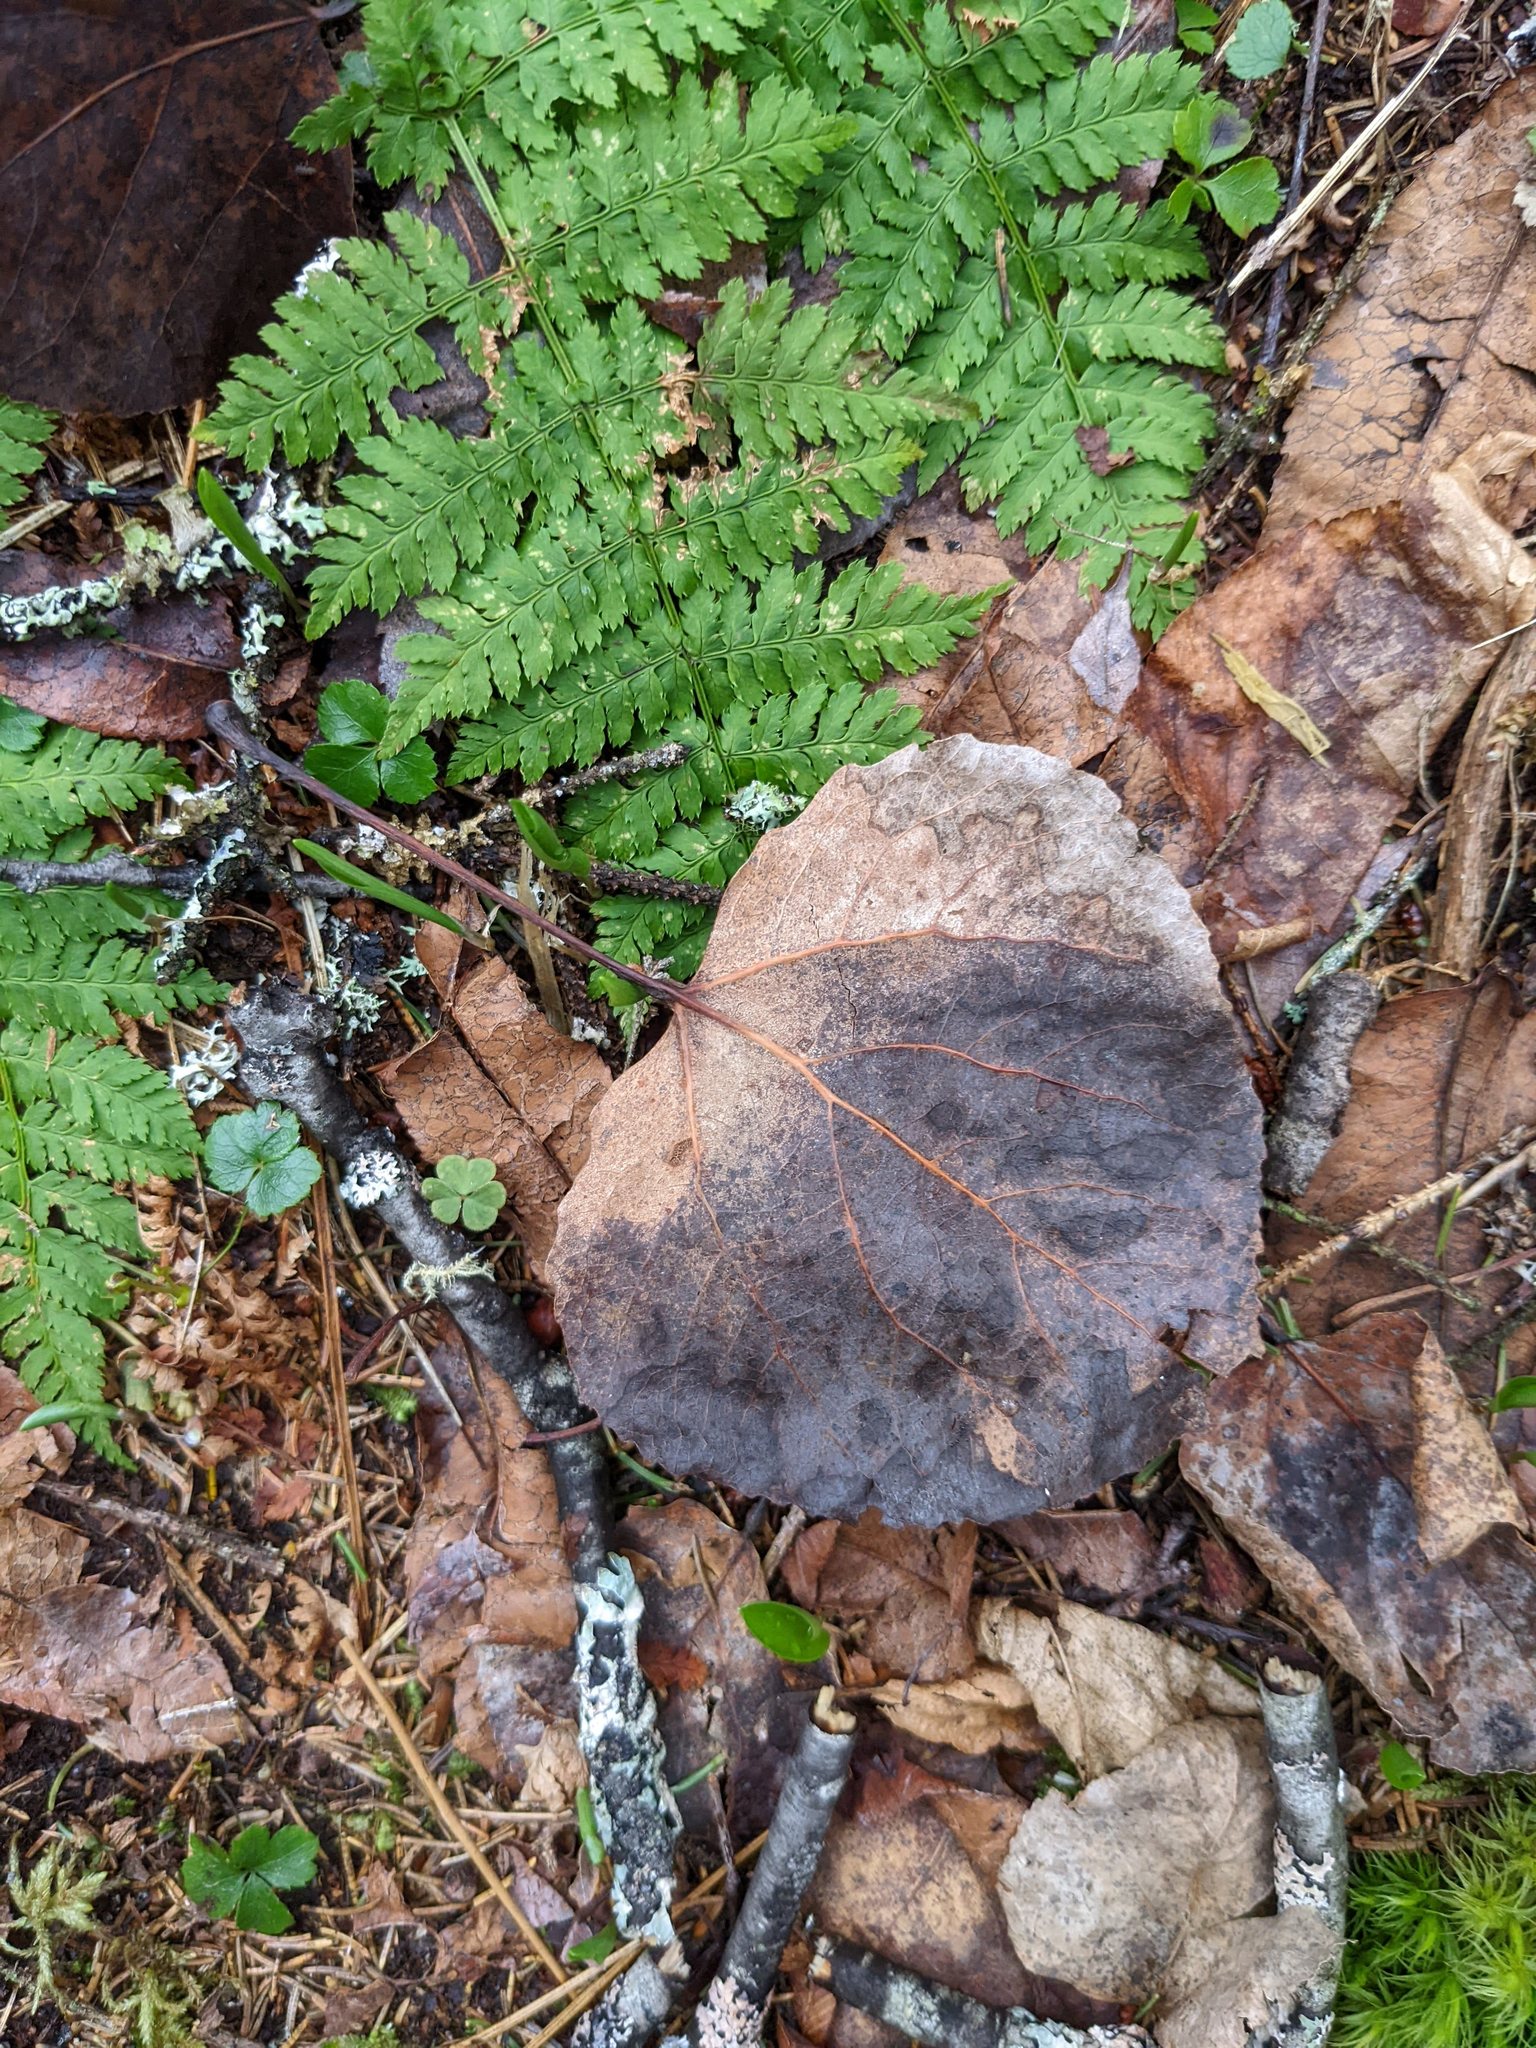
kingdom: Plantae
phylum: Tracheophyta
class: Magnoliopsida
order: Malpighiales
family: Salicaceae
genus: Populus
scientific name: Populus tremuloides
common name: Quaking aspen
